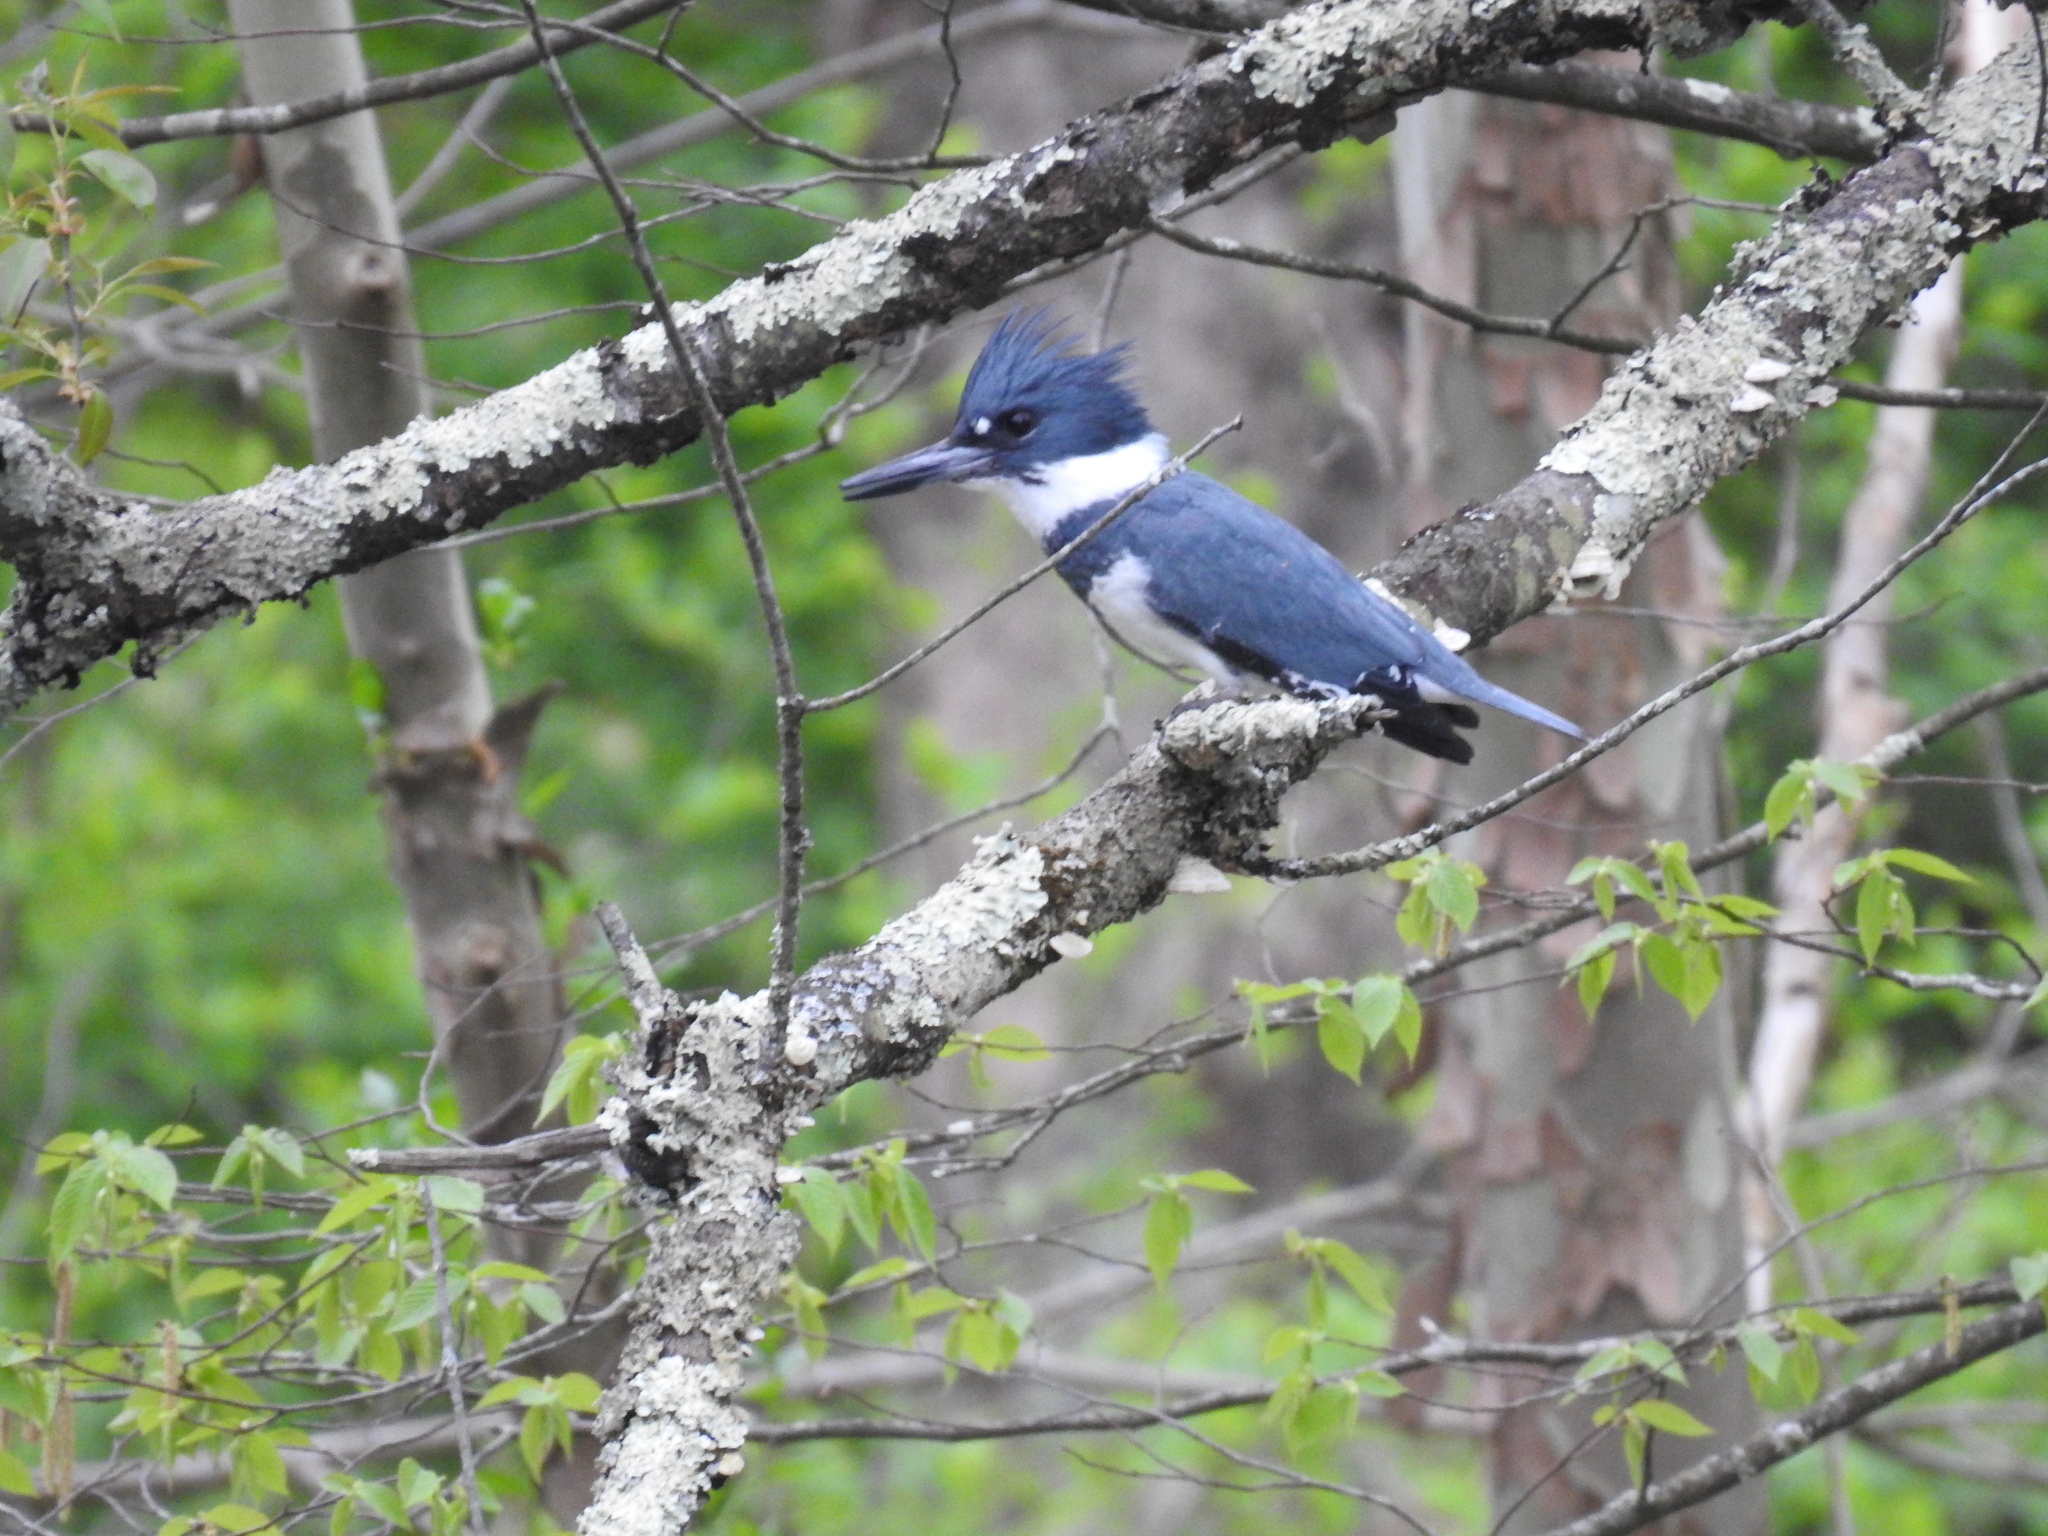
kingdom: Animalia
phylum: Chordata
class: Aves
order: Coraciiformes
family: Alcedinidae
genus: Megaceryle
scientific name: Megaceryle alcyon
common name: Belted kingfisher
